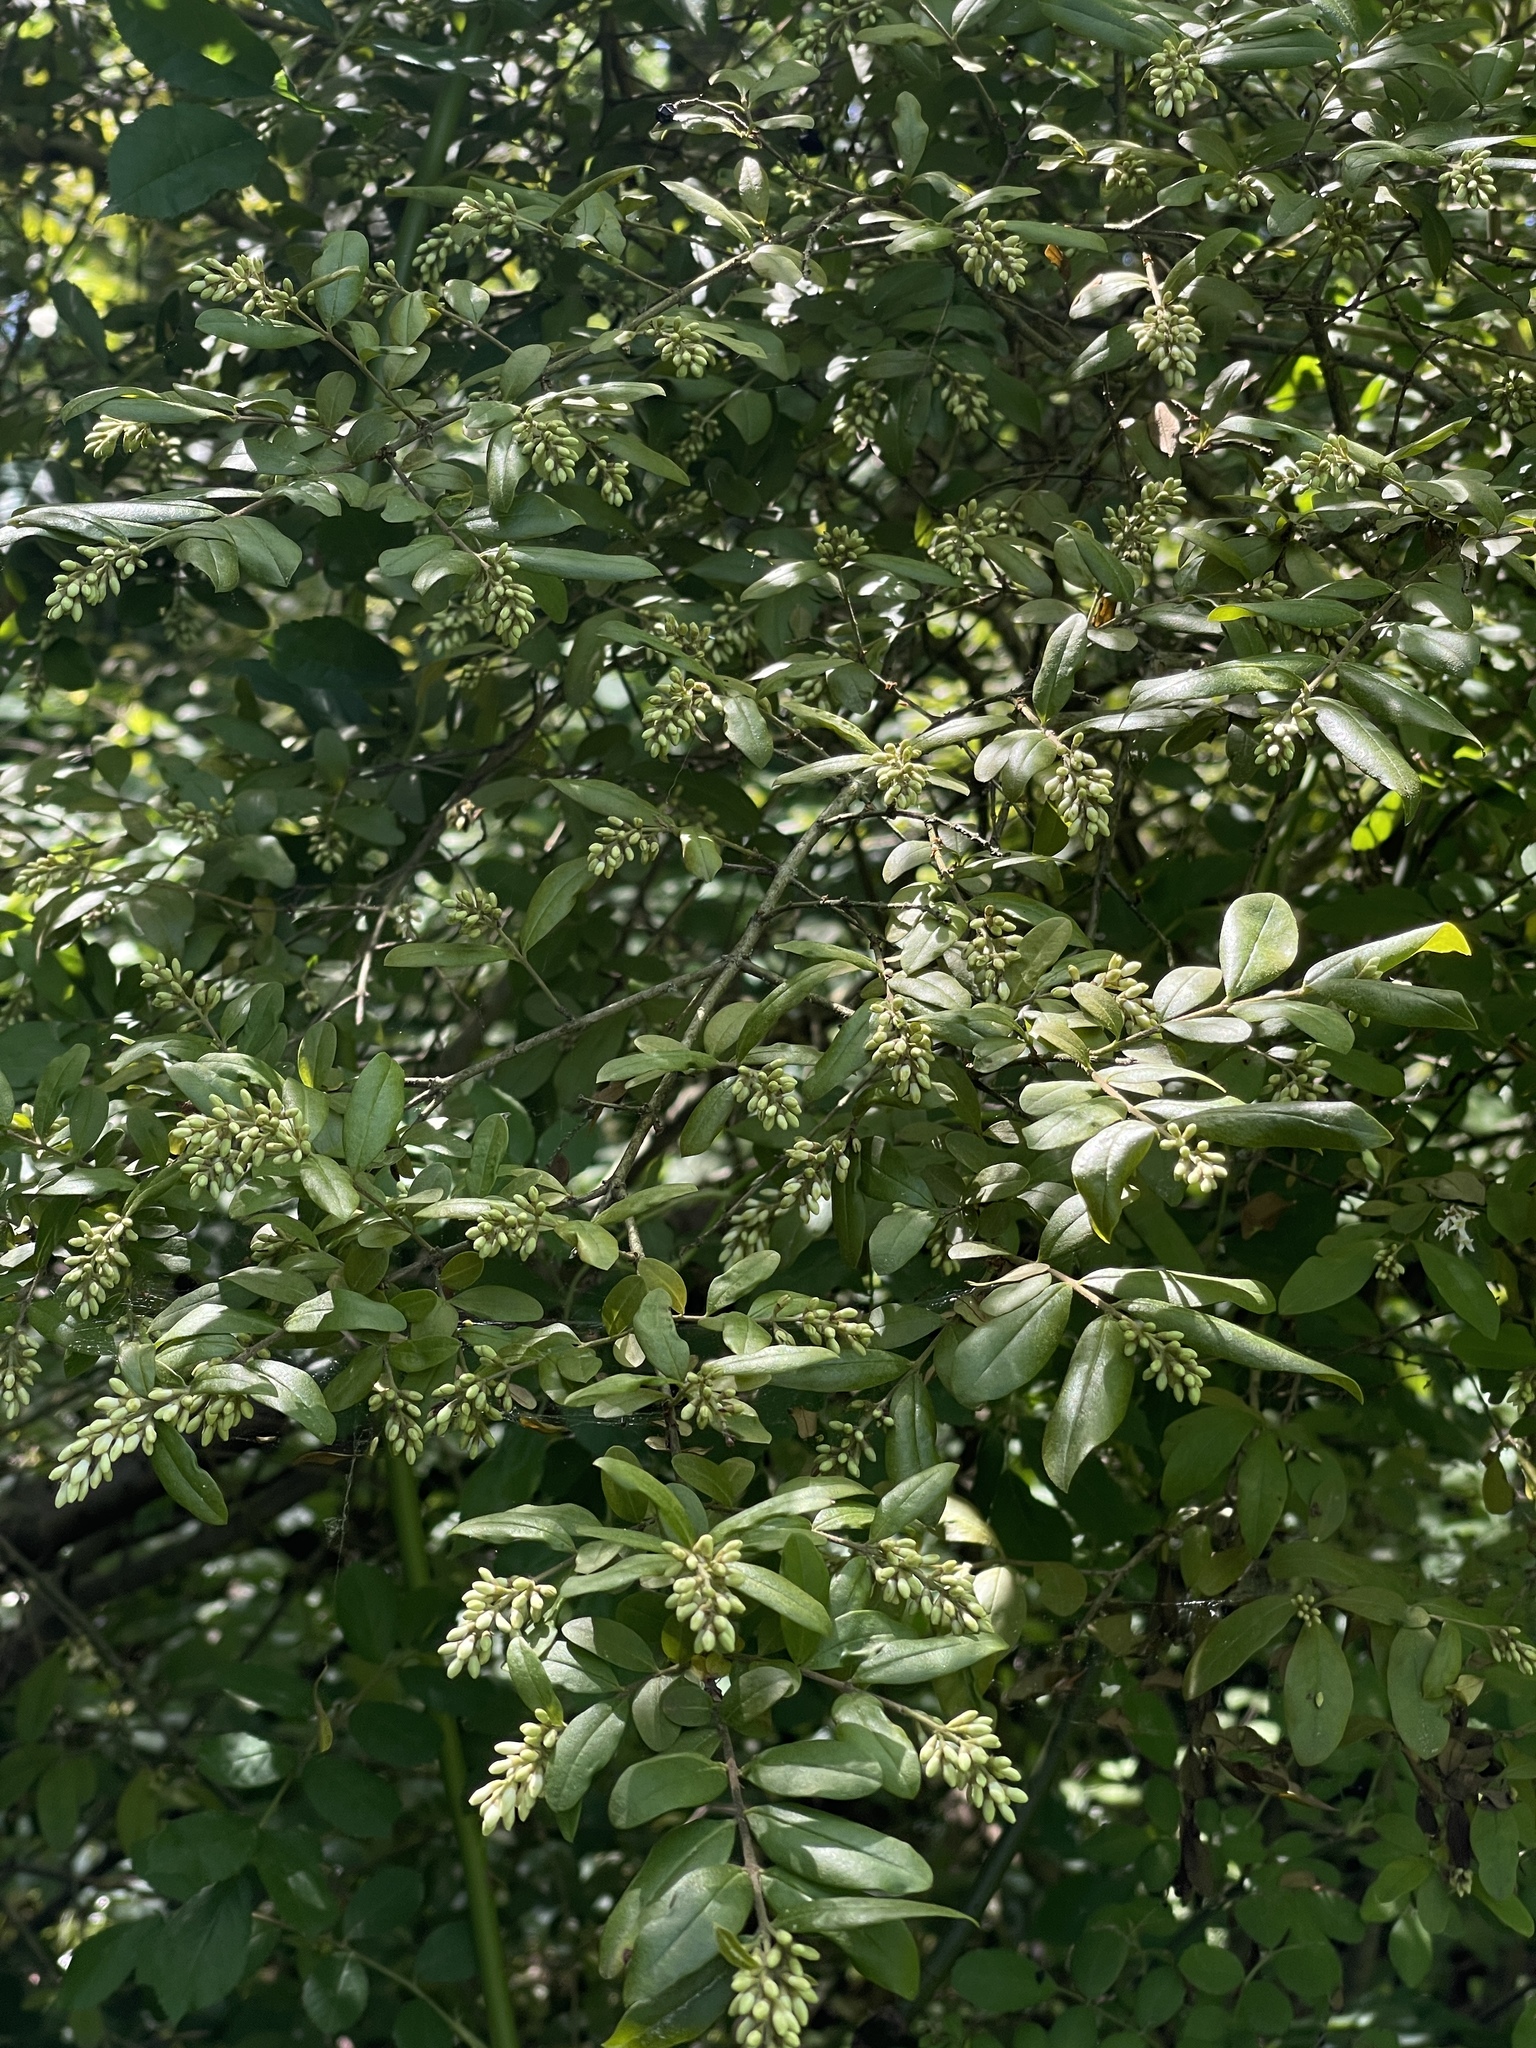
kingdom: Plantae
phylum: Tracheophyta
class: Magnoliopsida
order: Lamiales
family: Oleaceae
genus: Ligustrum
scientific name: Ligustrum obtusifolium
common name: Border privet
